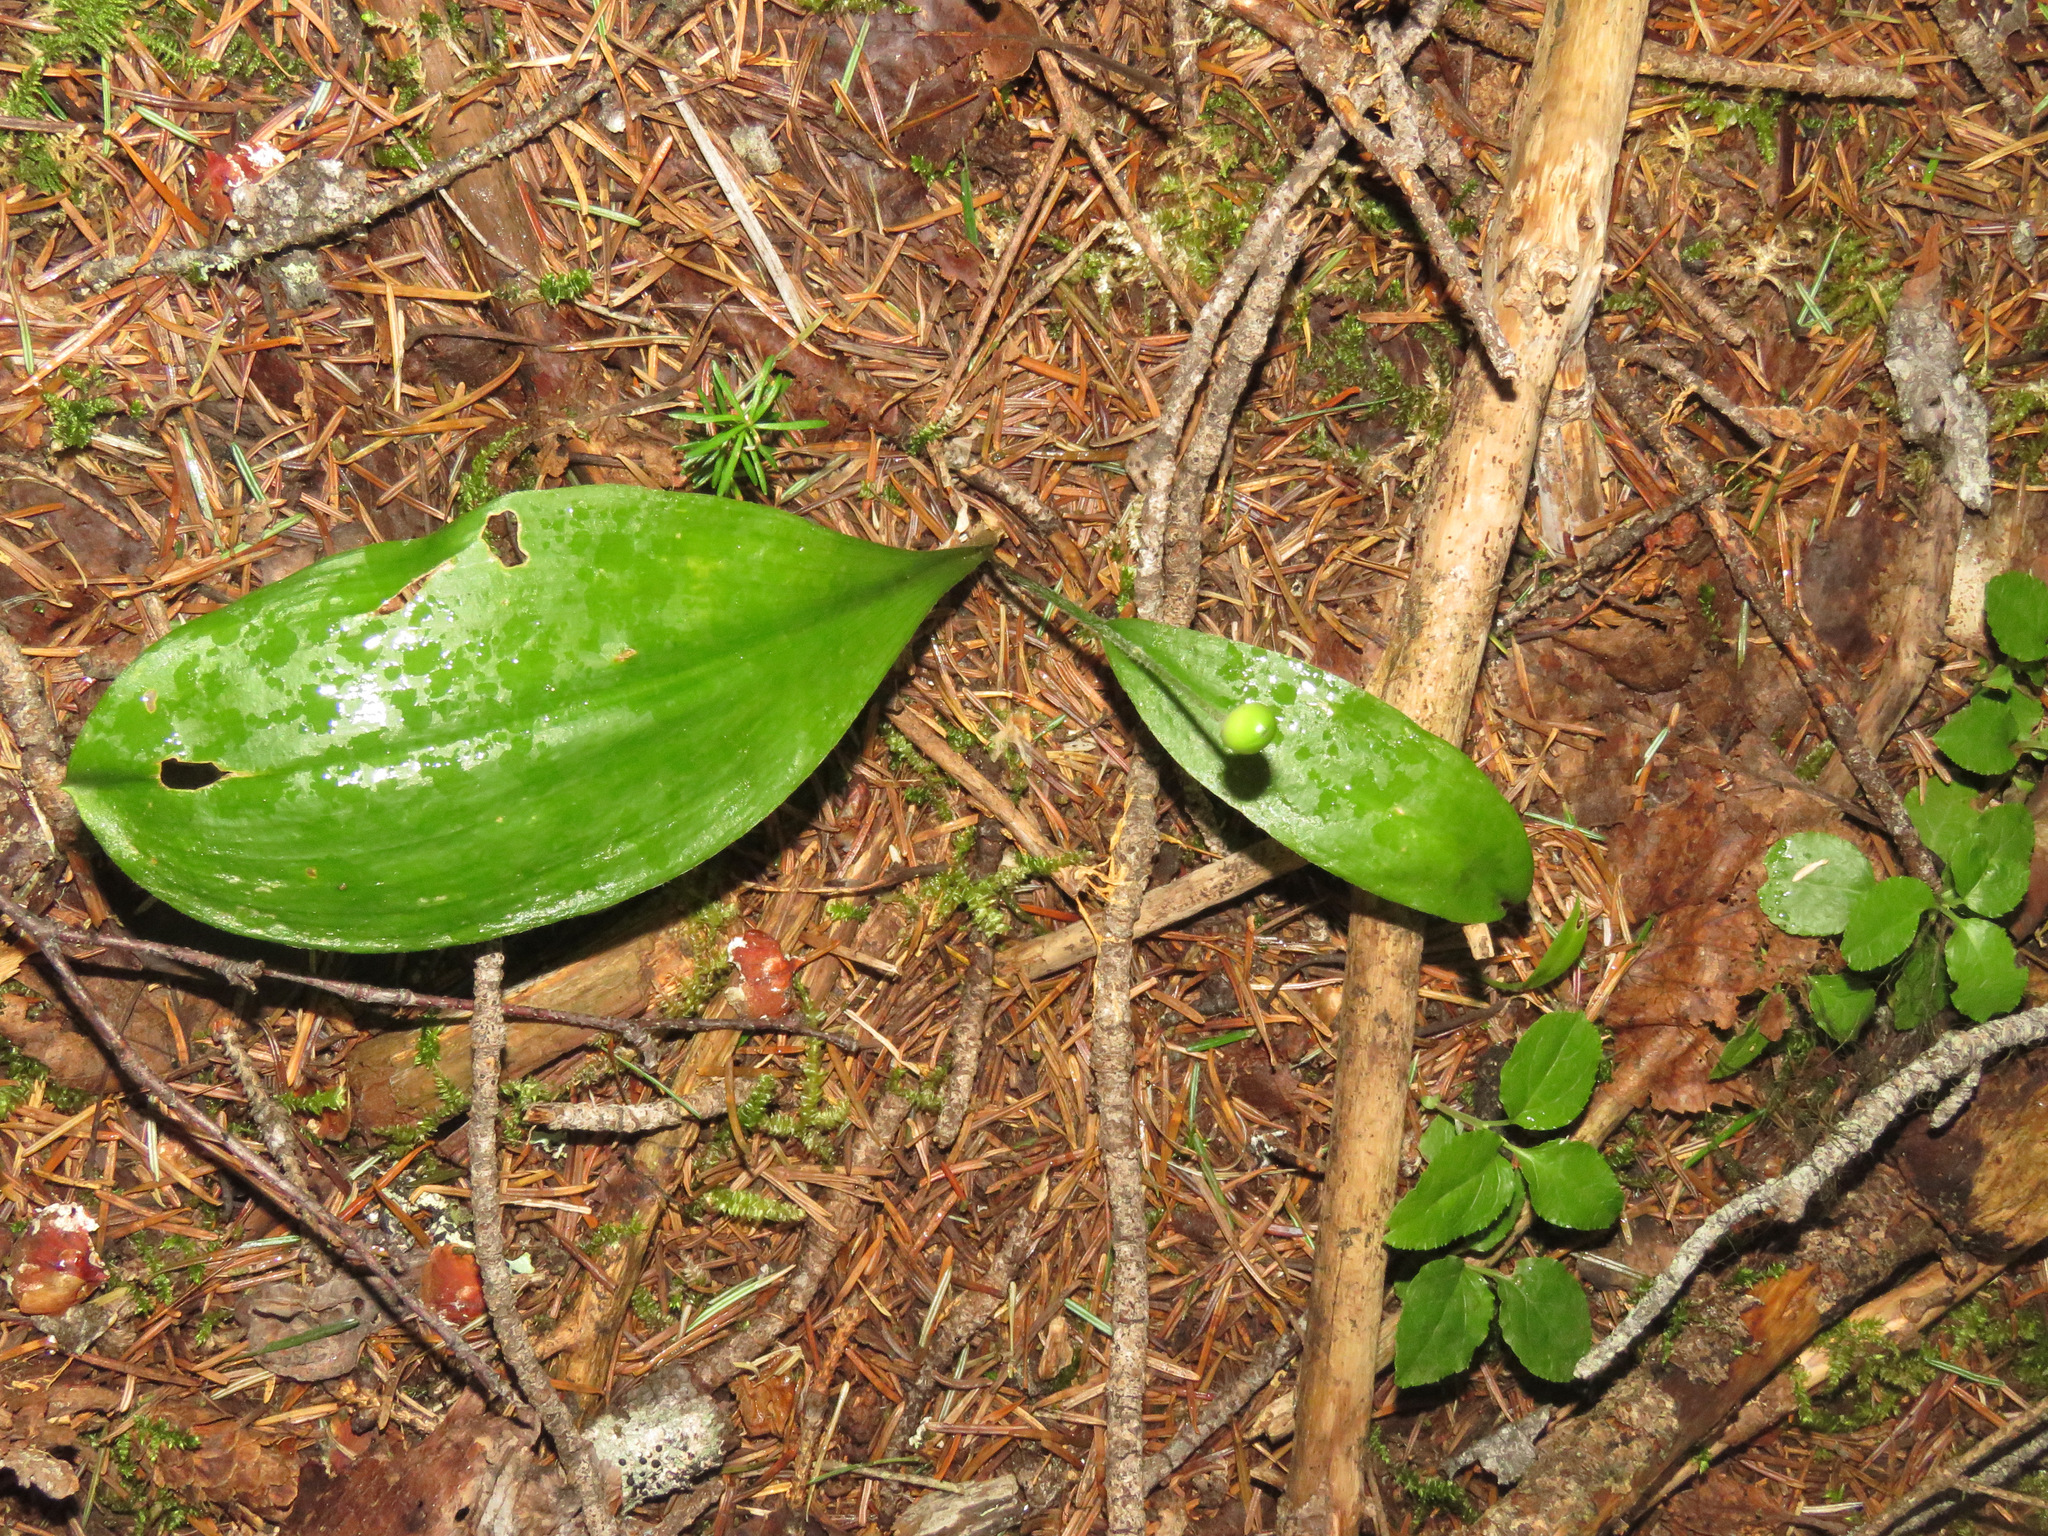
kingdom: Plantae
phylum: Tracheophyta
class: Liliopsida
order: Liliales
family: Liliaceae
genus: Clintonia
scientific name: Clintonia uniflora
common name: Queen's cup
